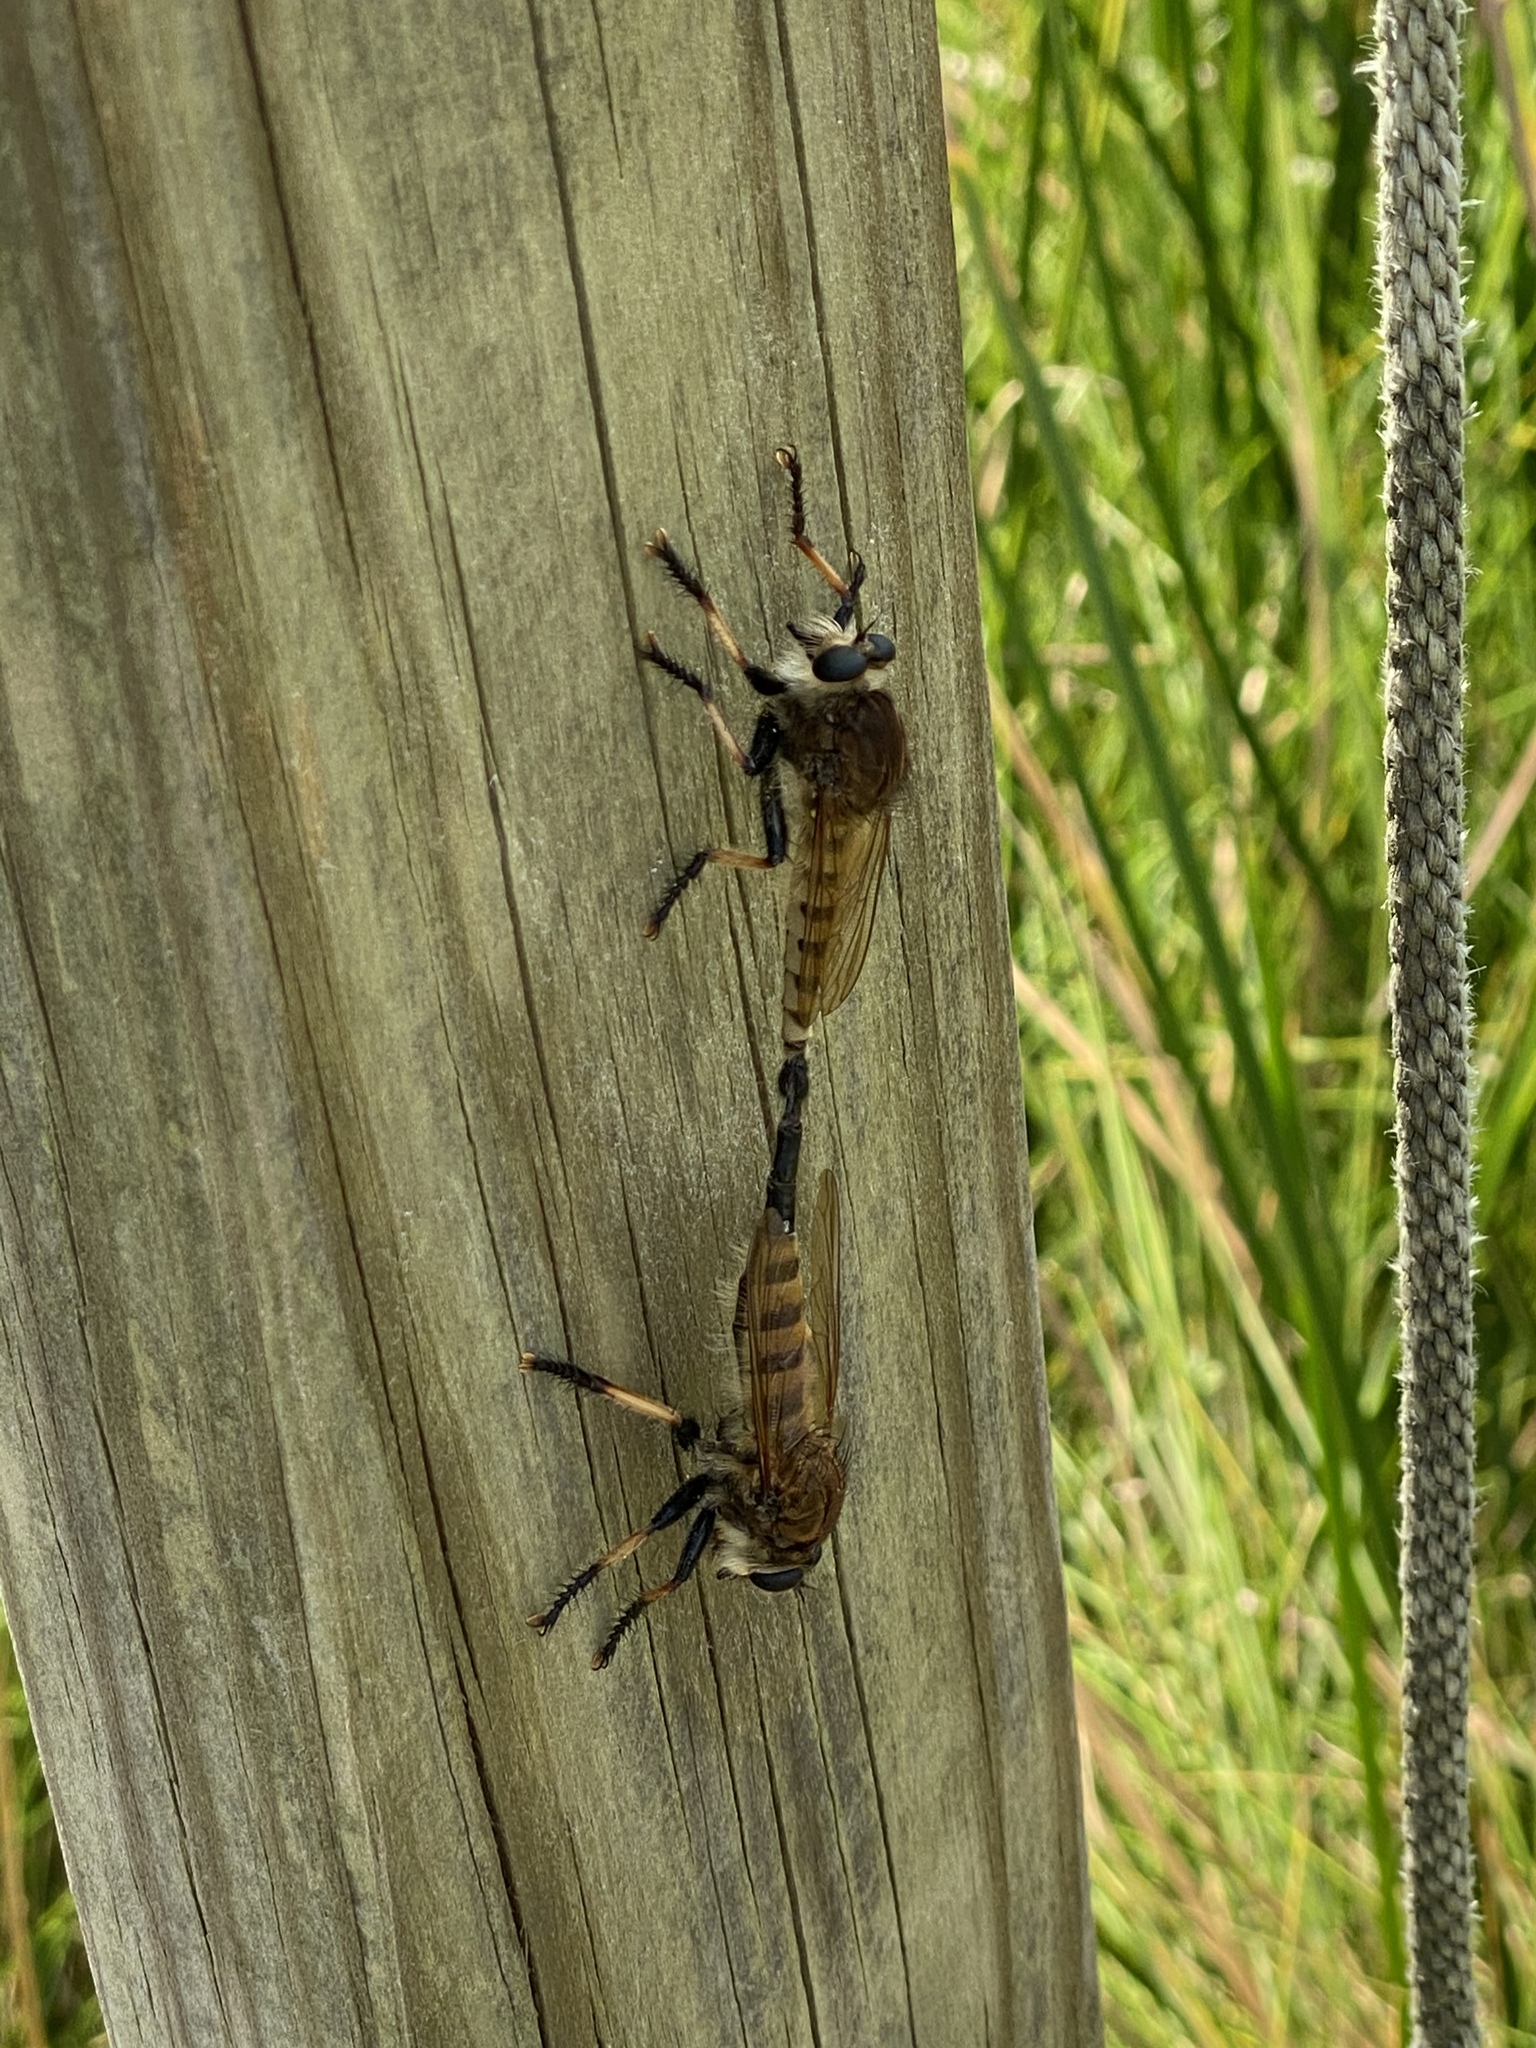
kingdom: Animalia
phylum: Arthropoda
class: Insecta
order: Diptera
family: Asilidae
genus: Promachus
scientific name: Promachus rufipes
